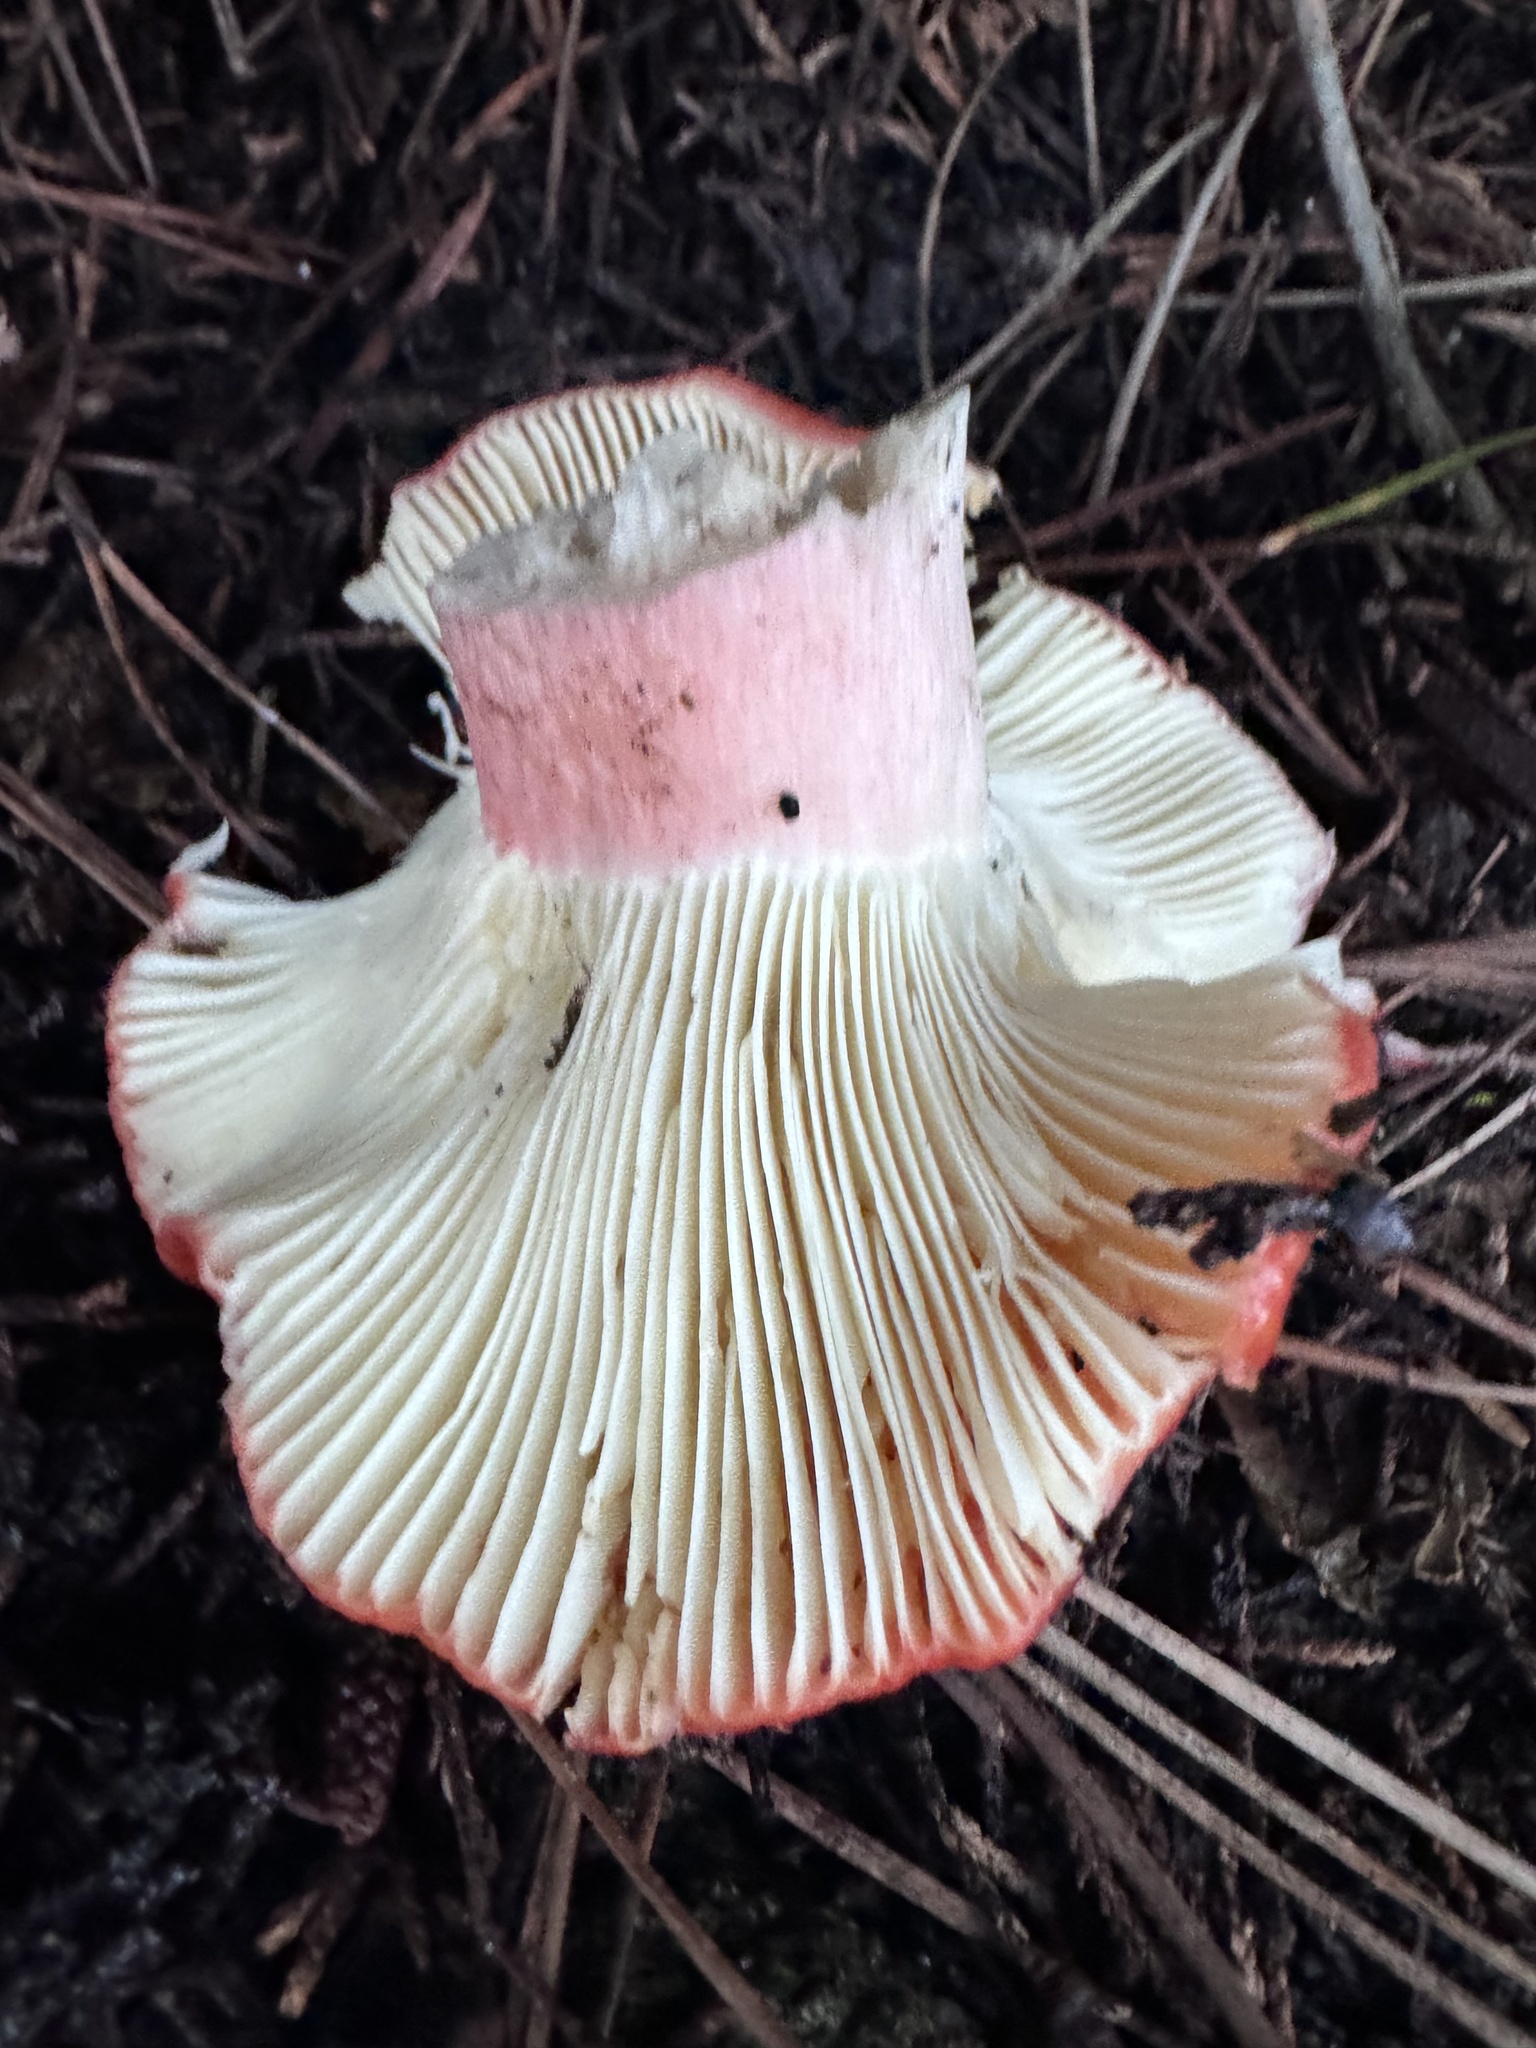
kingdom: Fungi
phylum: Basidiomycota
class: Agaricomycetes
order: Russulales
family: Russulaceae
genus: Russula
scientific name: Russula rhodocephala
